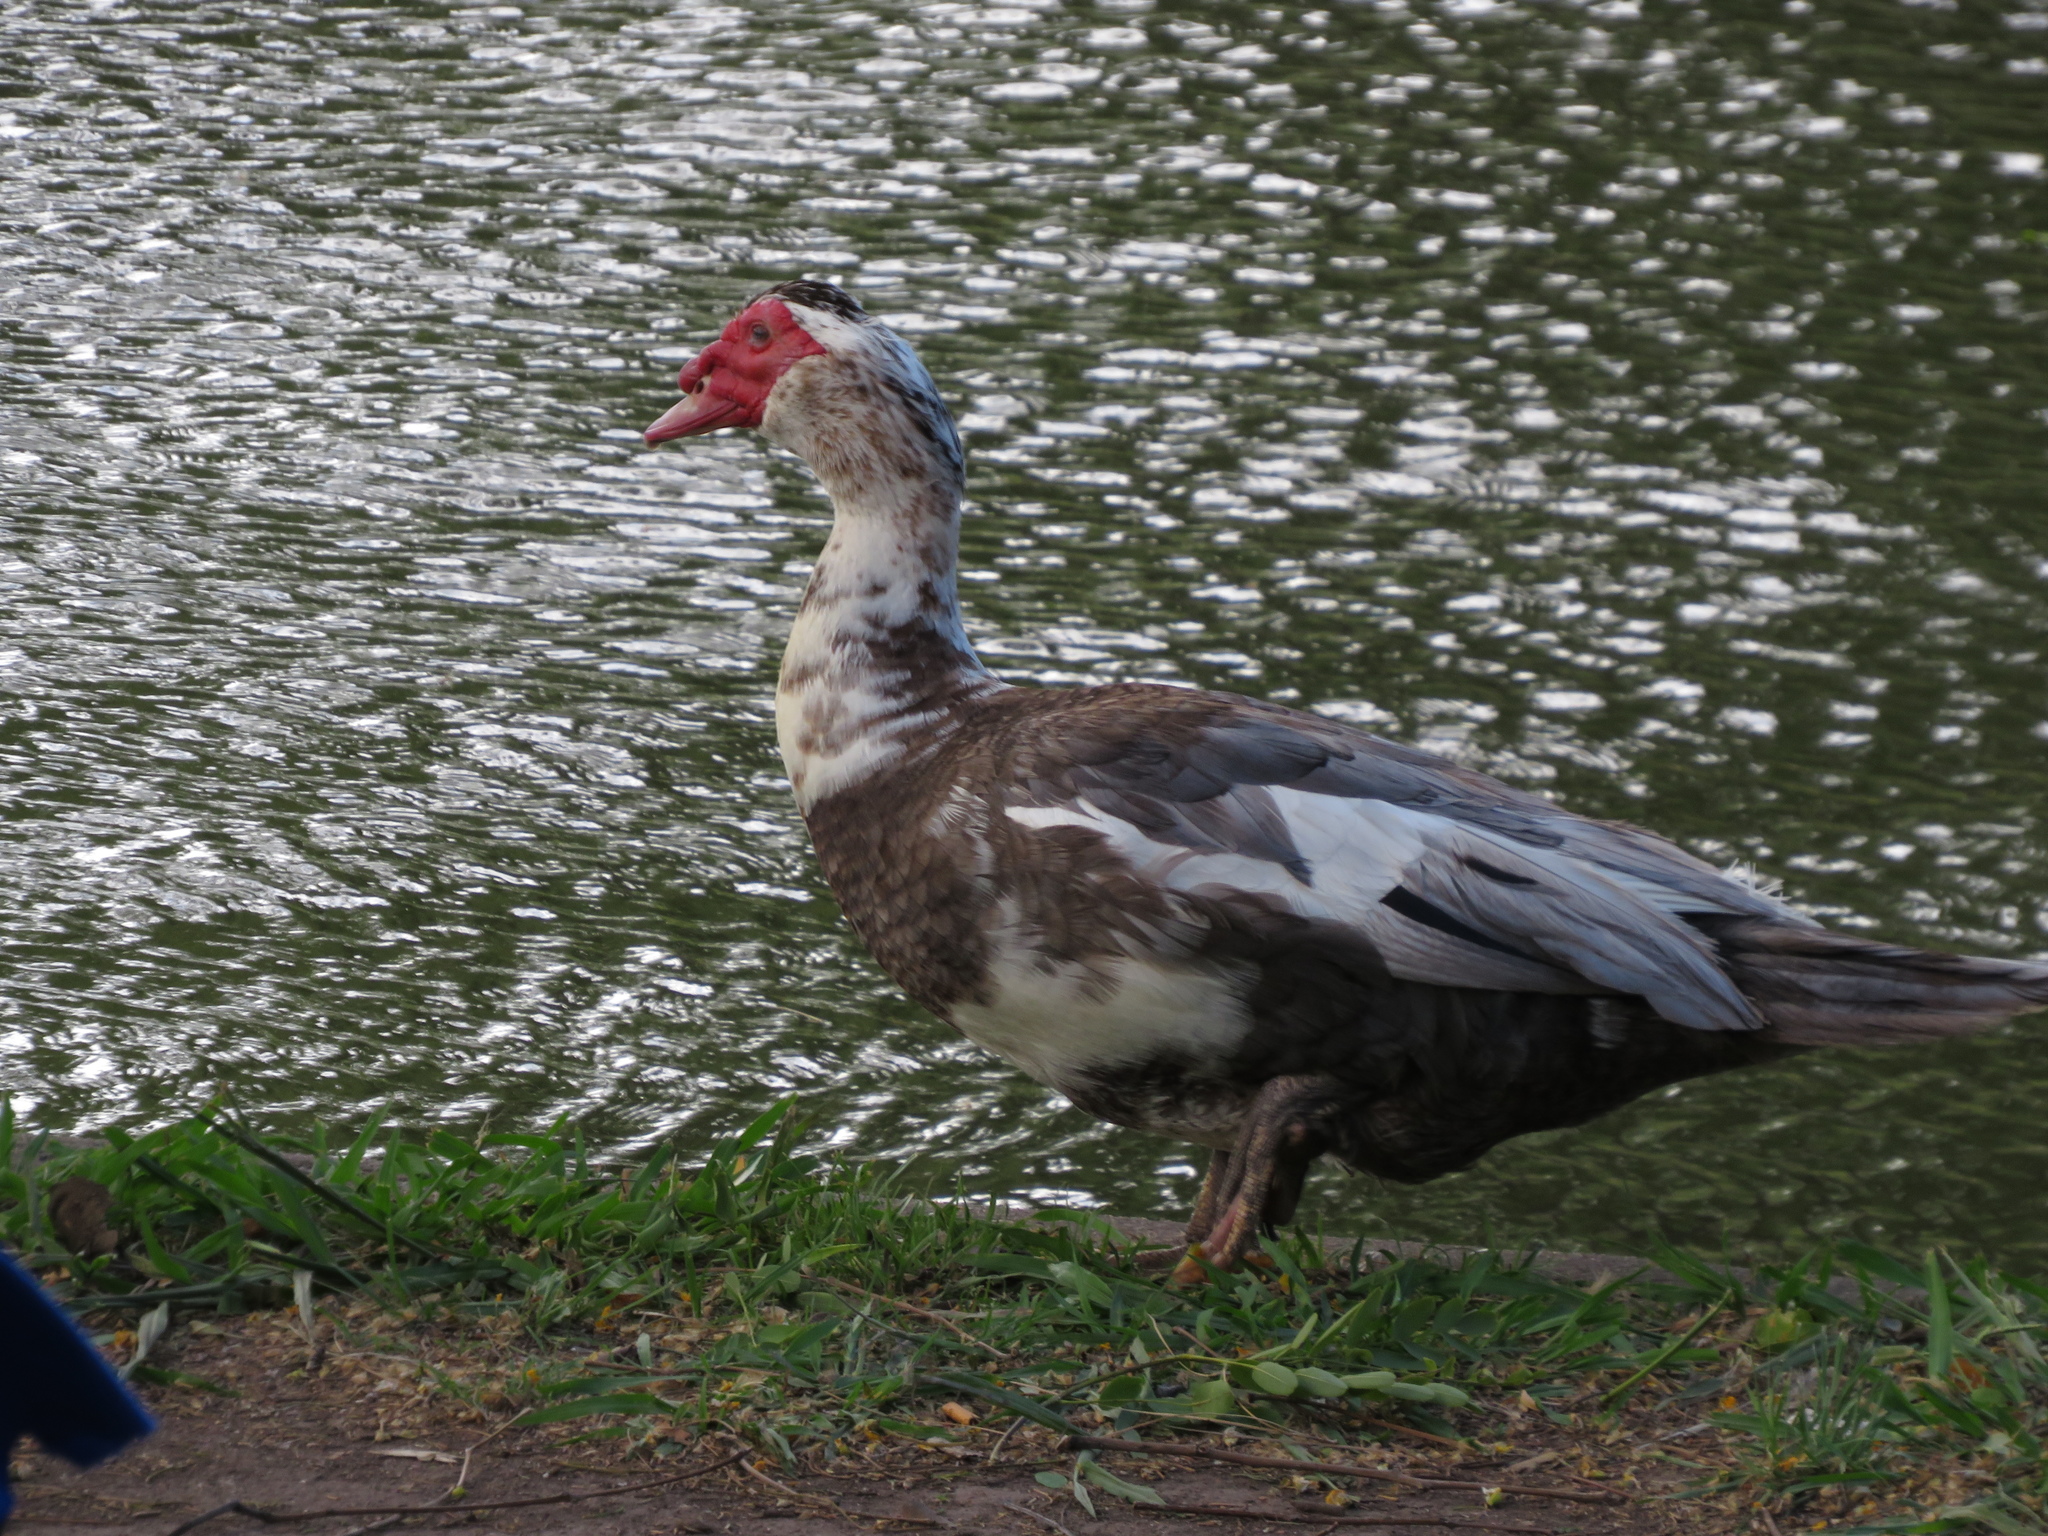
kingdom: Animalia
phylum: Chordata
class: Aves
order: Anseriformes
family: Anatidae
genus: Cairina
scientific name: Cairina moschata
